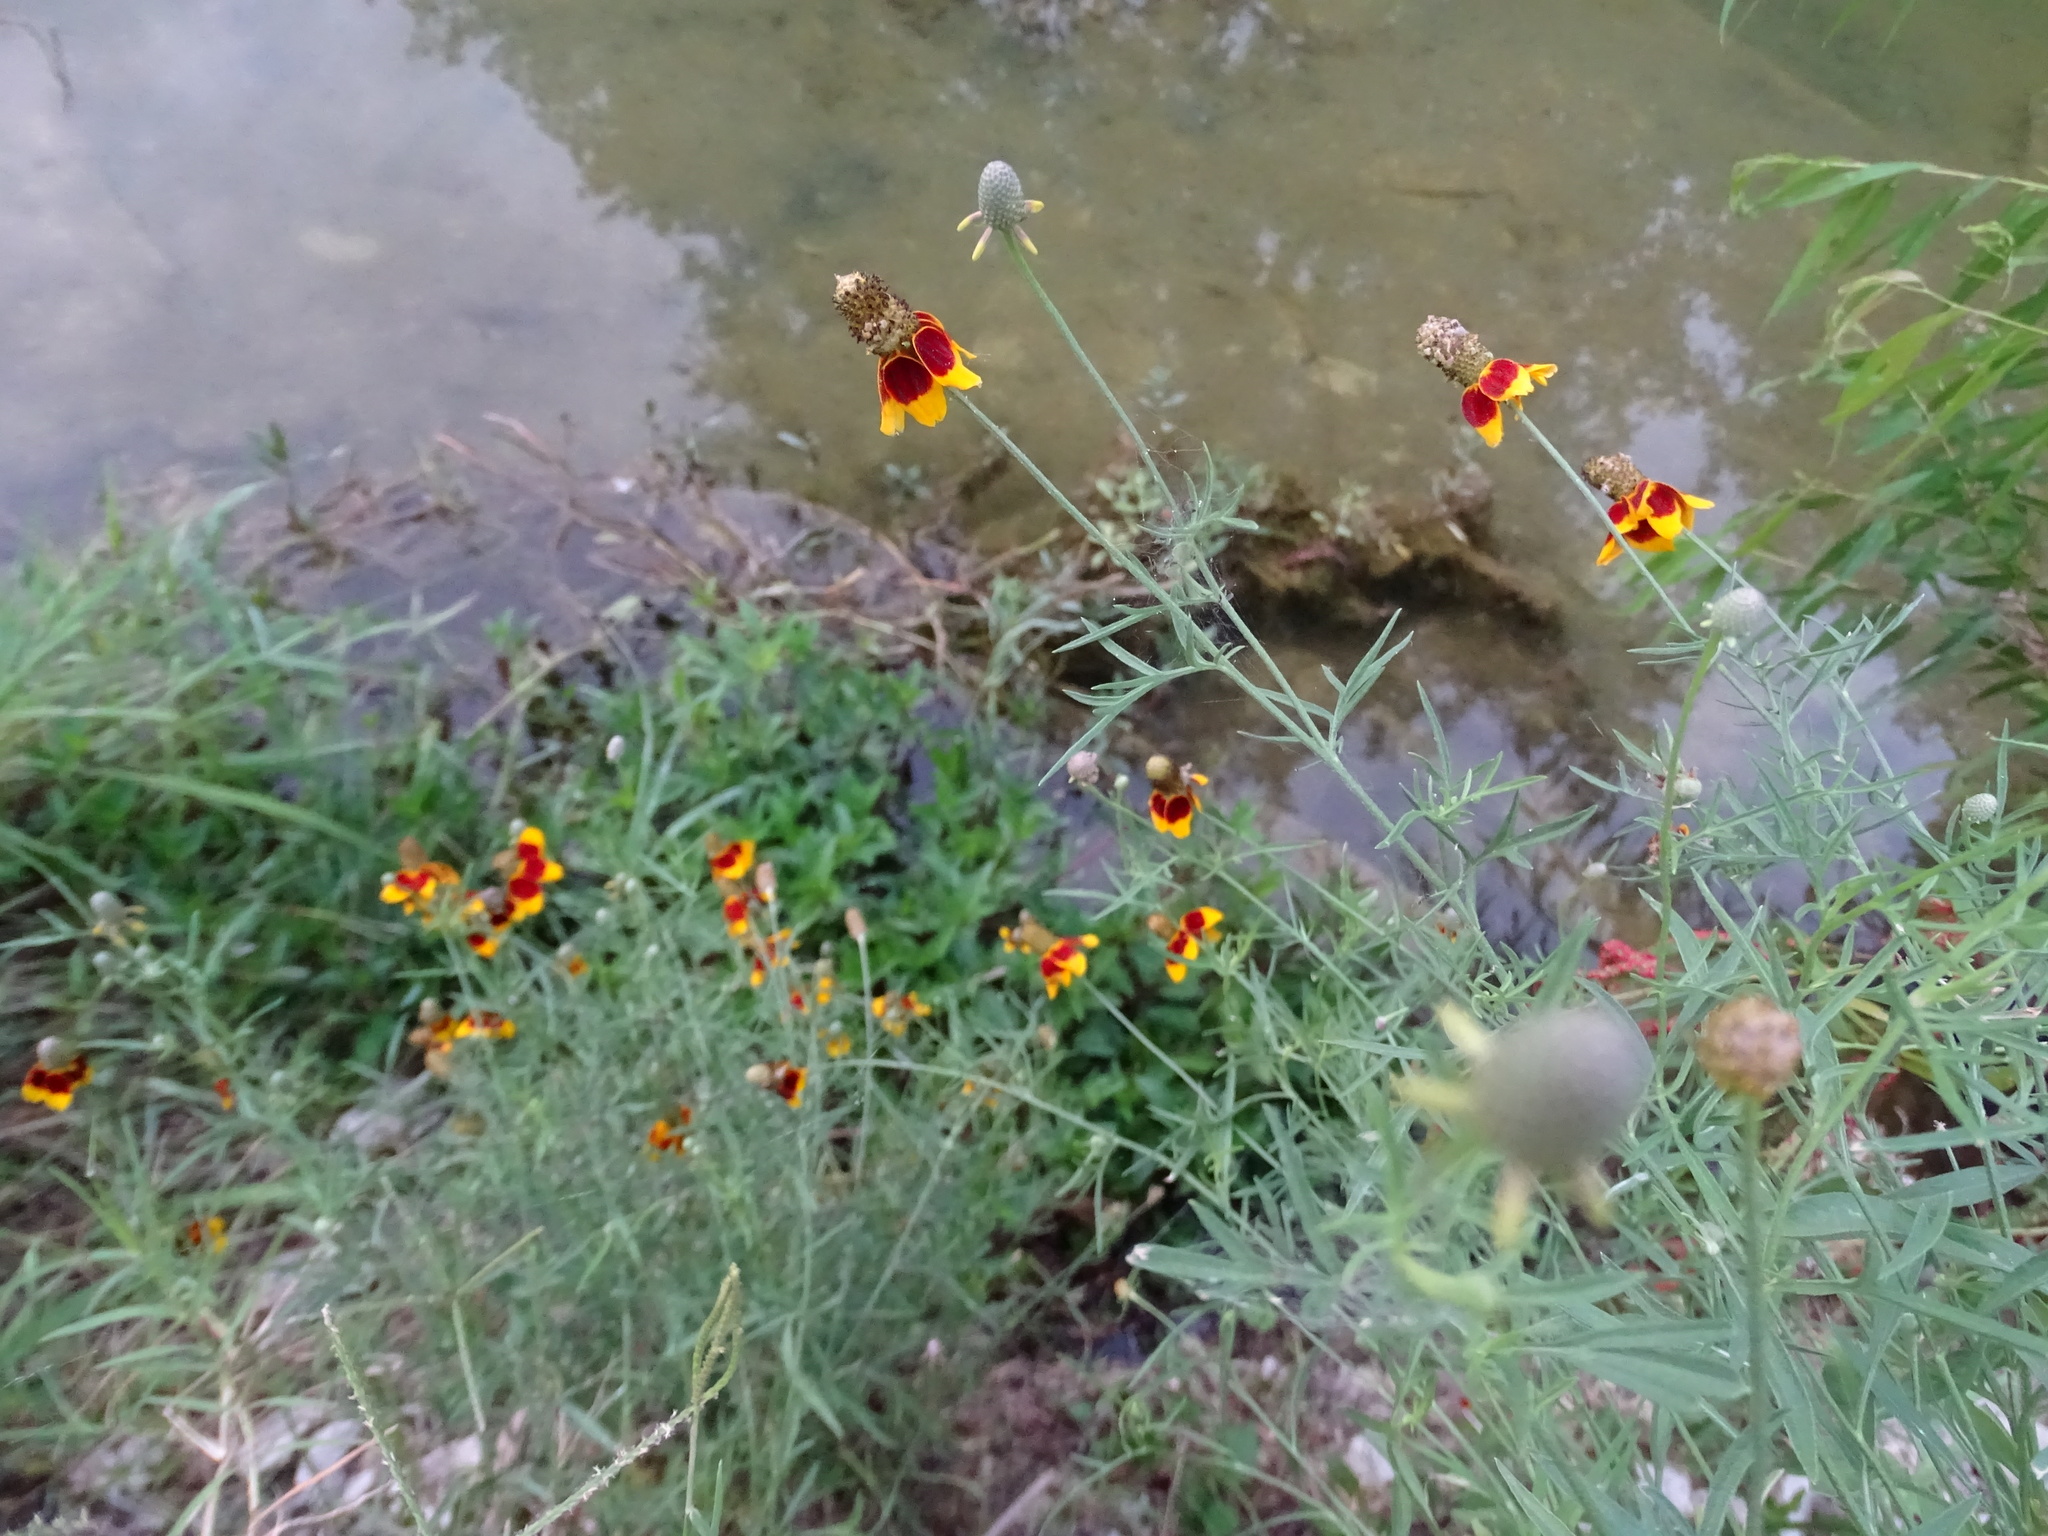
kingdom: Plantae
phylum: Tracheophyta
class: Magnoliopsida
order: Asterales
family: Asteraceae
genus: Ratibida
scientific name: Ratibida columnifera
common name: Prairie coneflower
